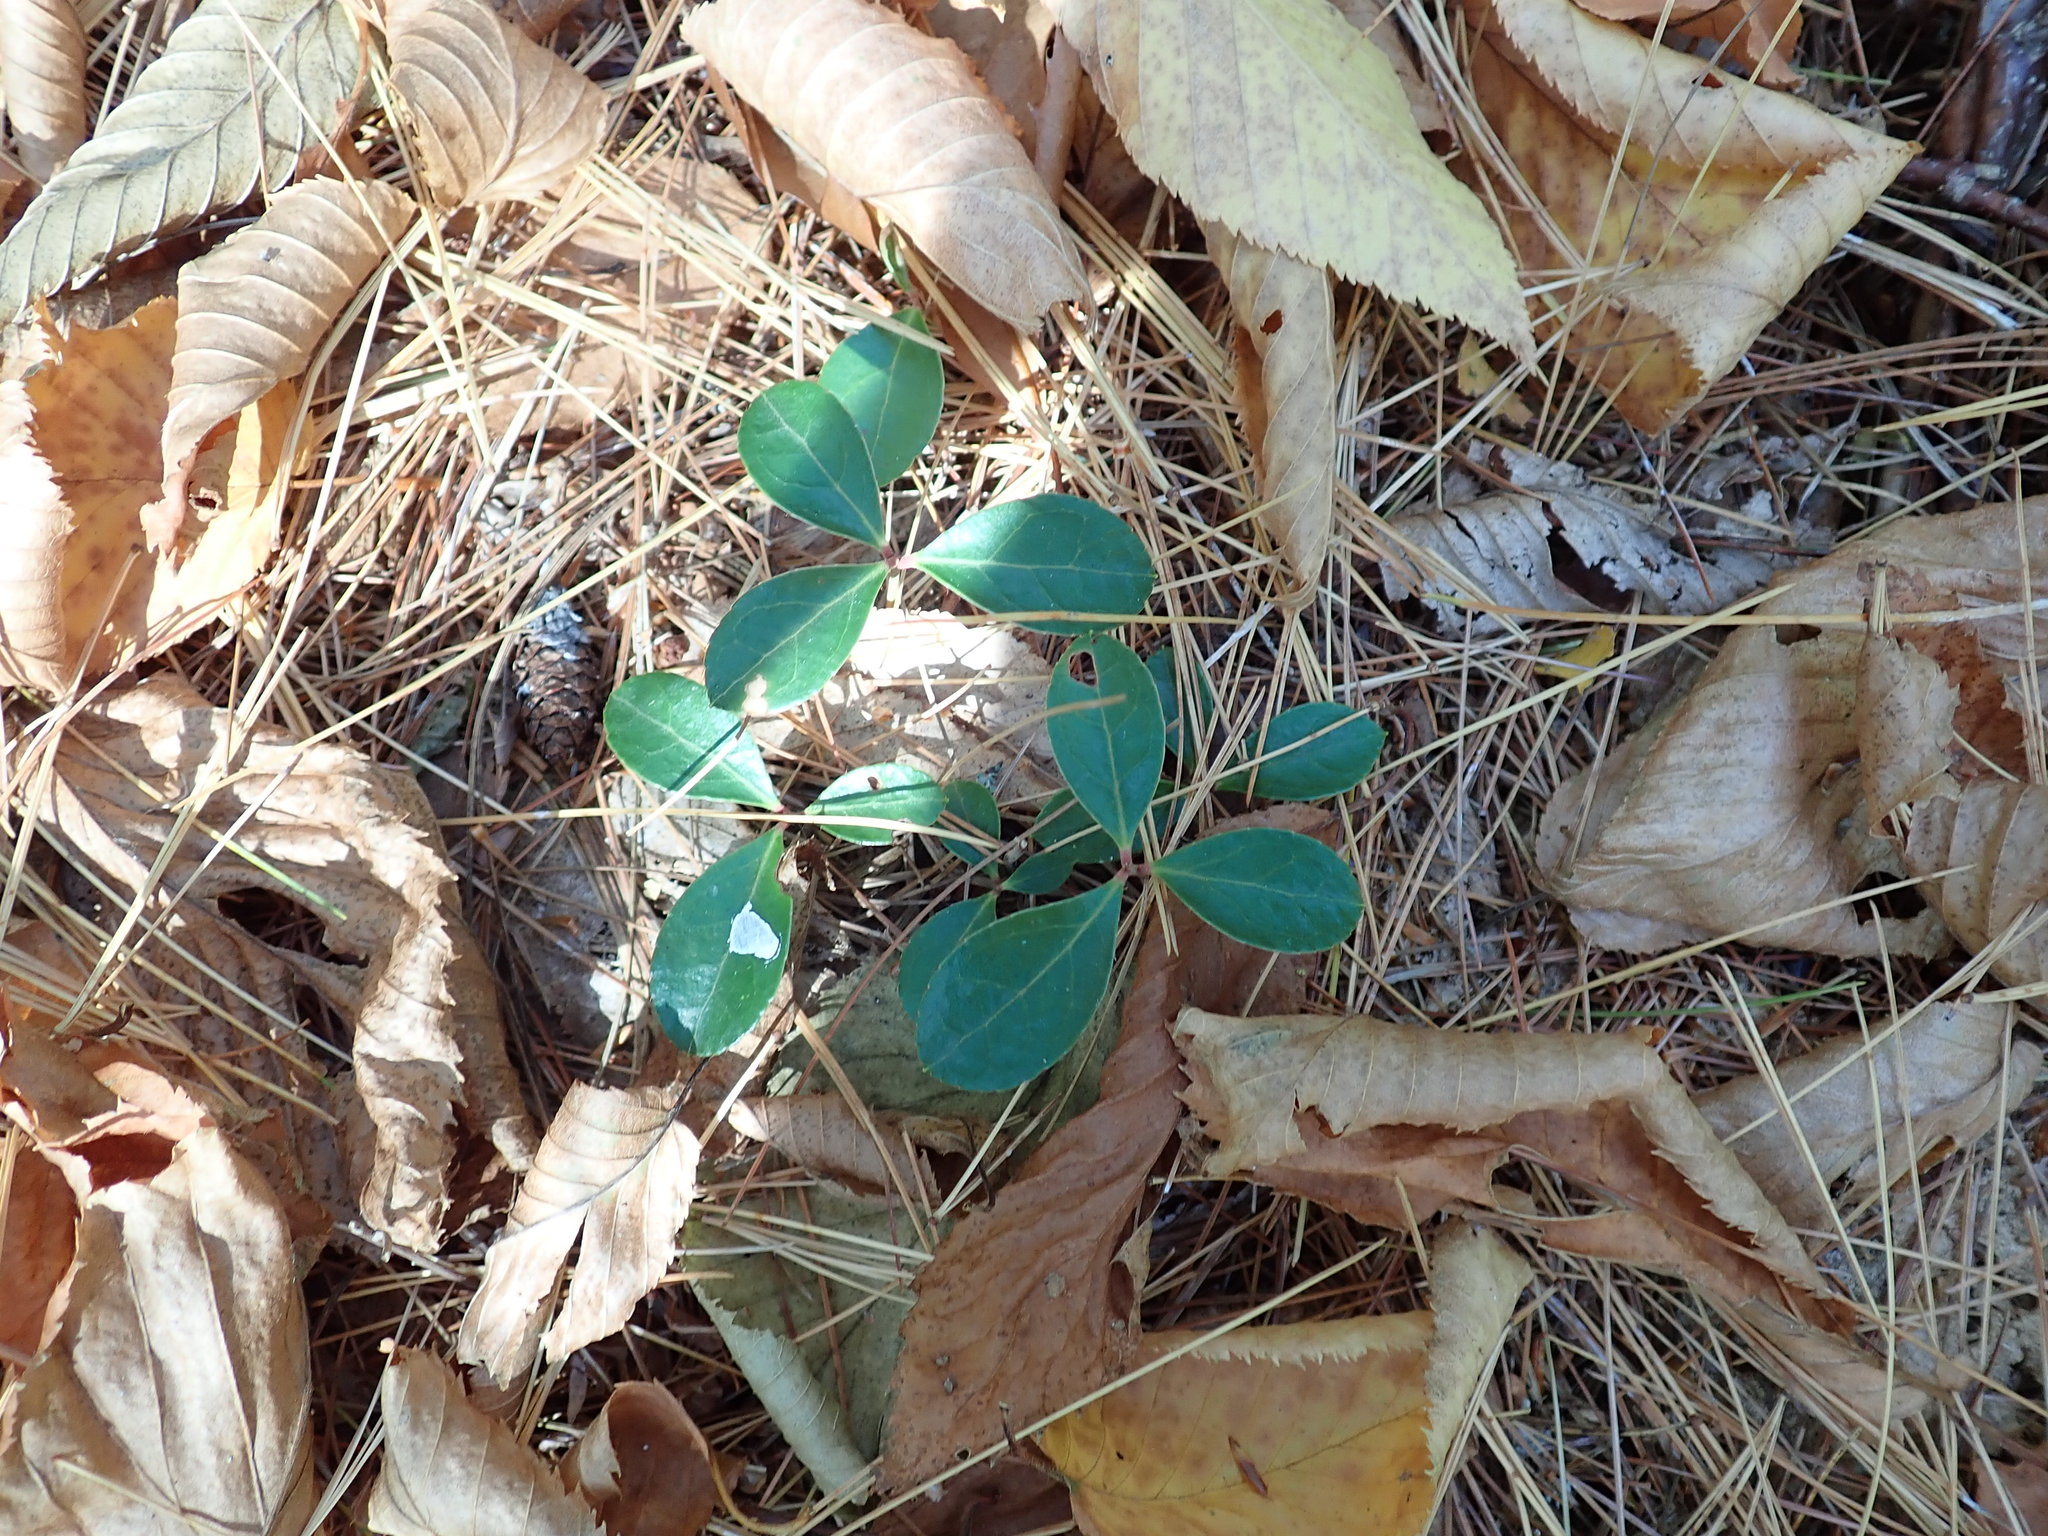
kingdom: Plantae
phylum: Tracheophyta
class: Magnoliopsida
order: Ericales
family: Ericaceae
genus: Gaultheria
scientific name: Gaultheria procumbens
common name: Checkerberry
